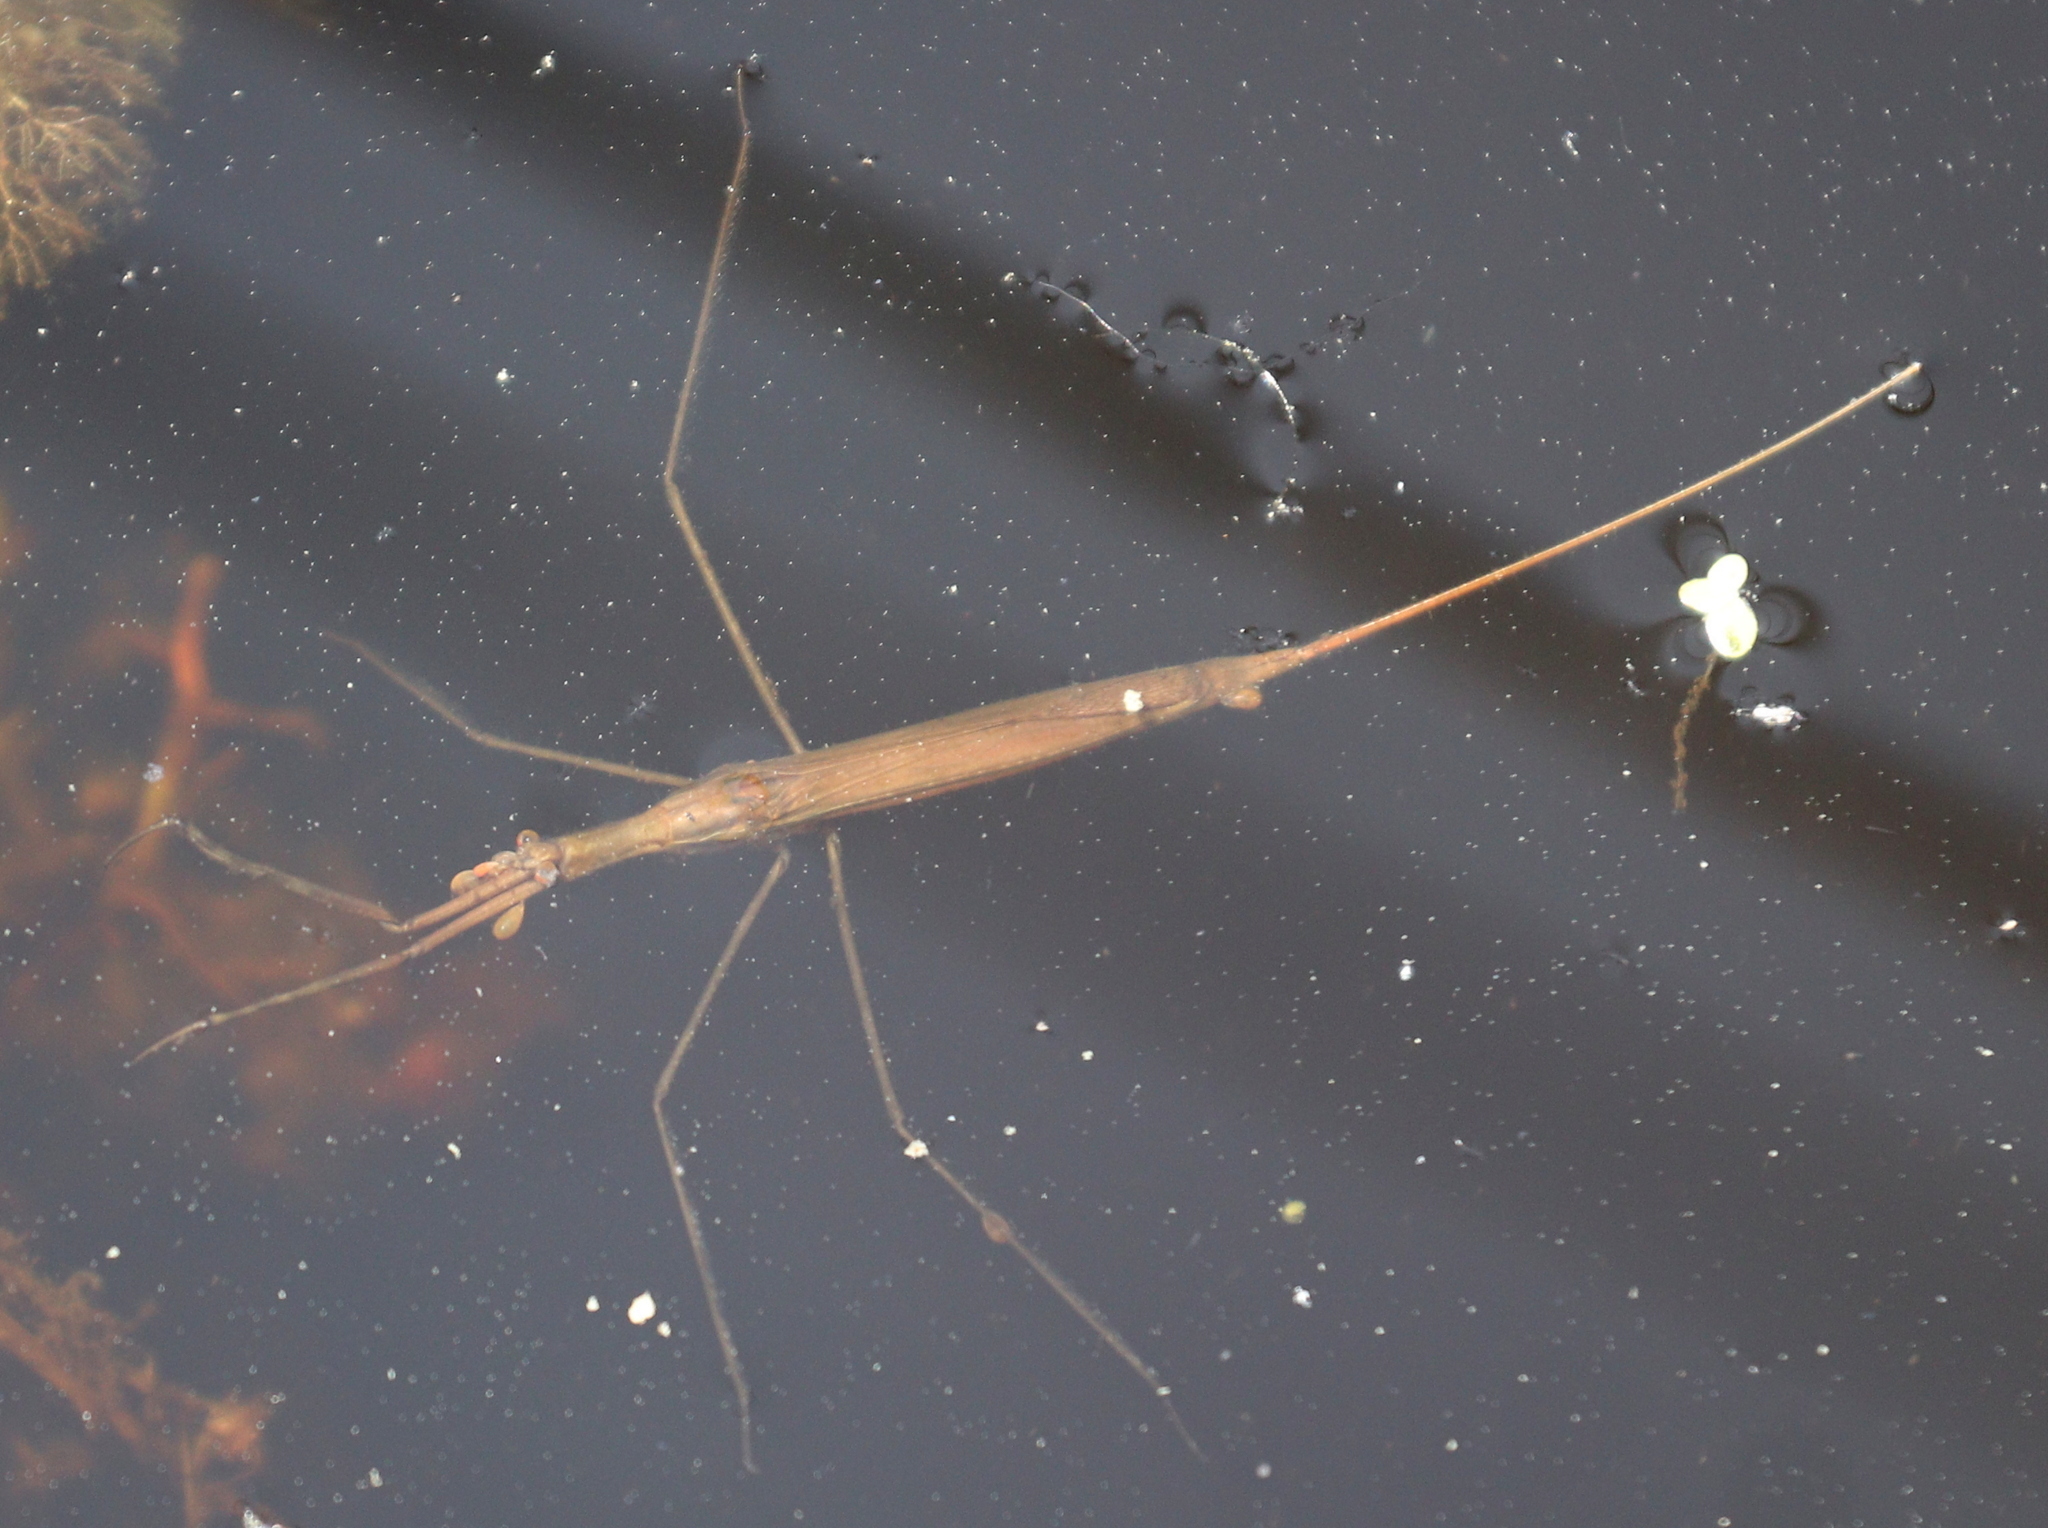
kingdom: Animalia
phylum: Arthropoda
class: Insecta
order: Hemiptera
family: Nepidae
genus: Ranatra
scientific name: Ranatra linearis
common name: Water stick insect
